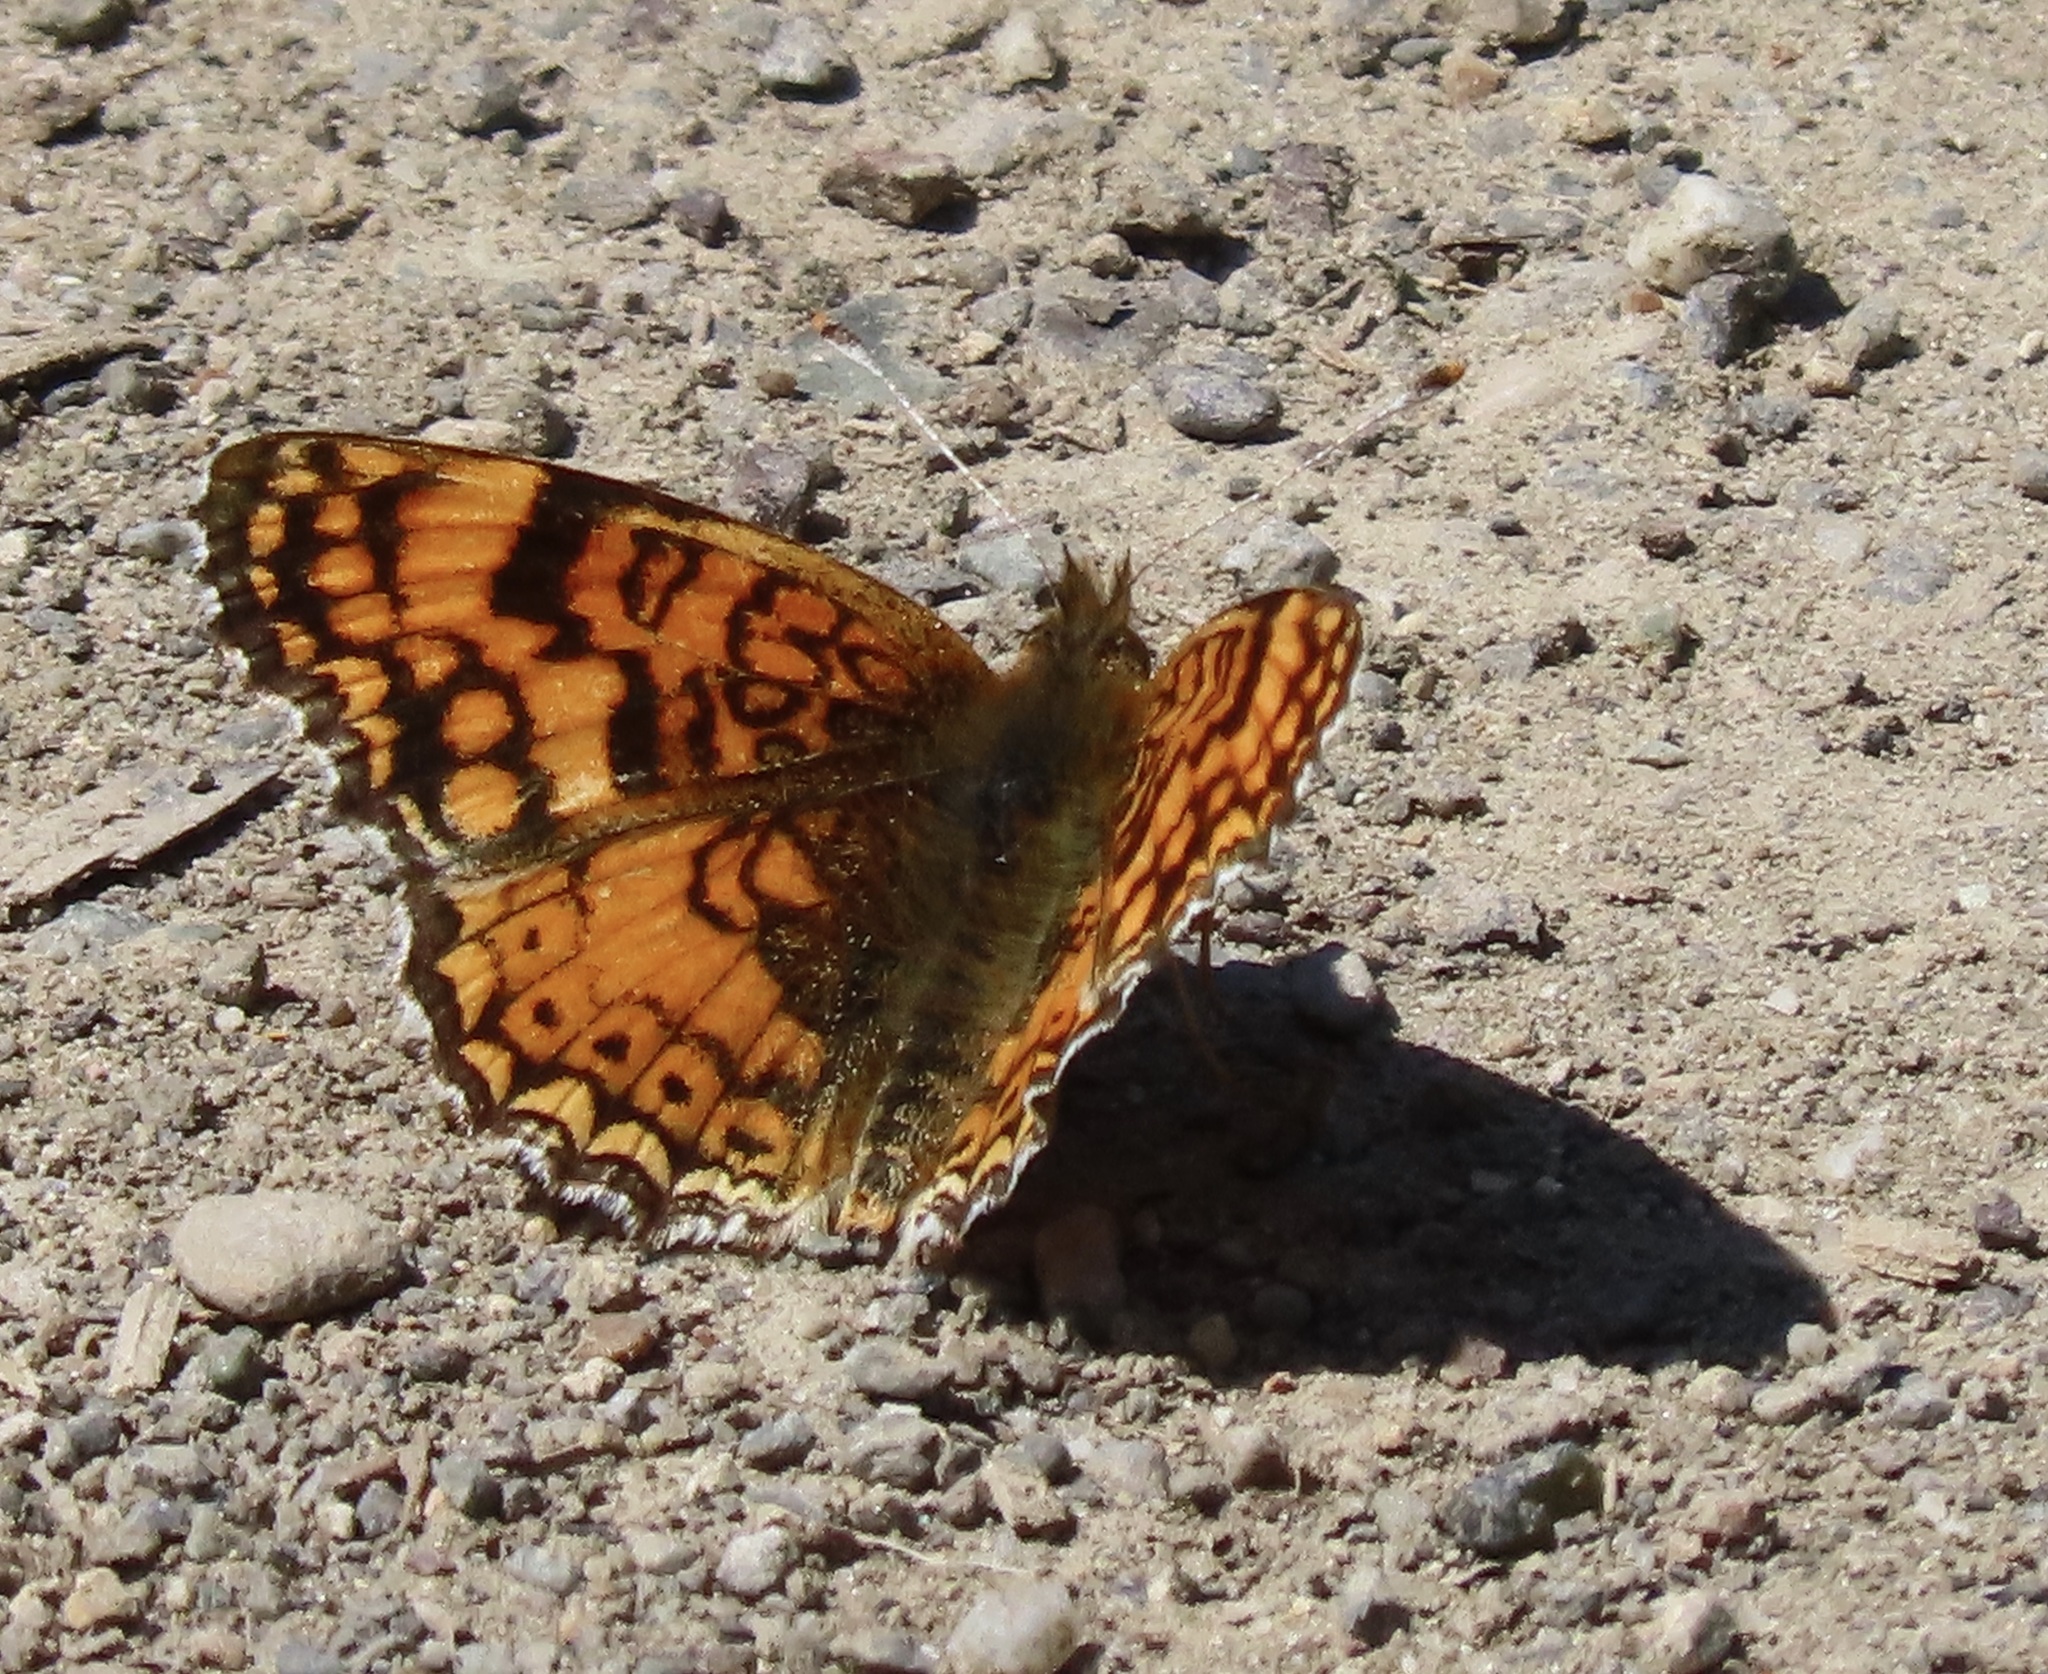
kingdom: Animalia
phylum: Arthropoda
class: Insecta
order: Lepidoptera
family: Nymphalidae
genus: Eresia
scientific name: Eresia aveyrona
